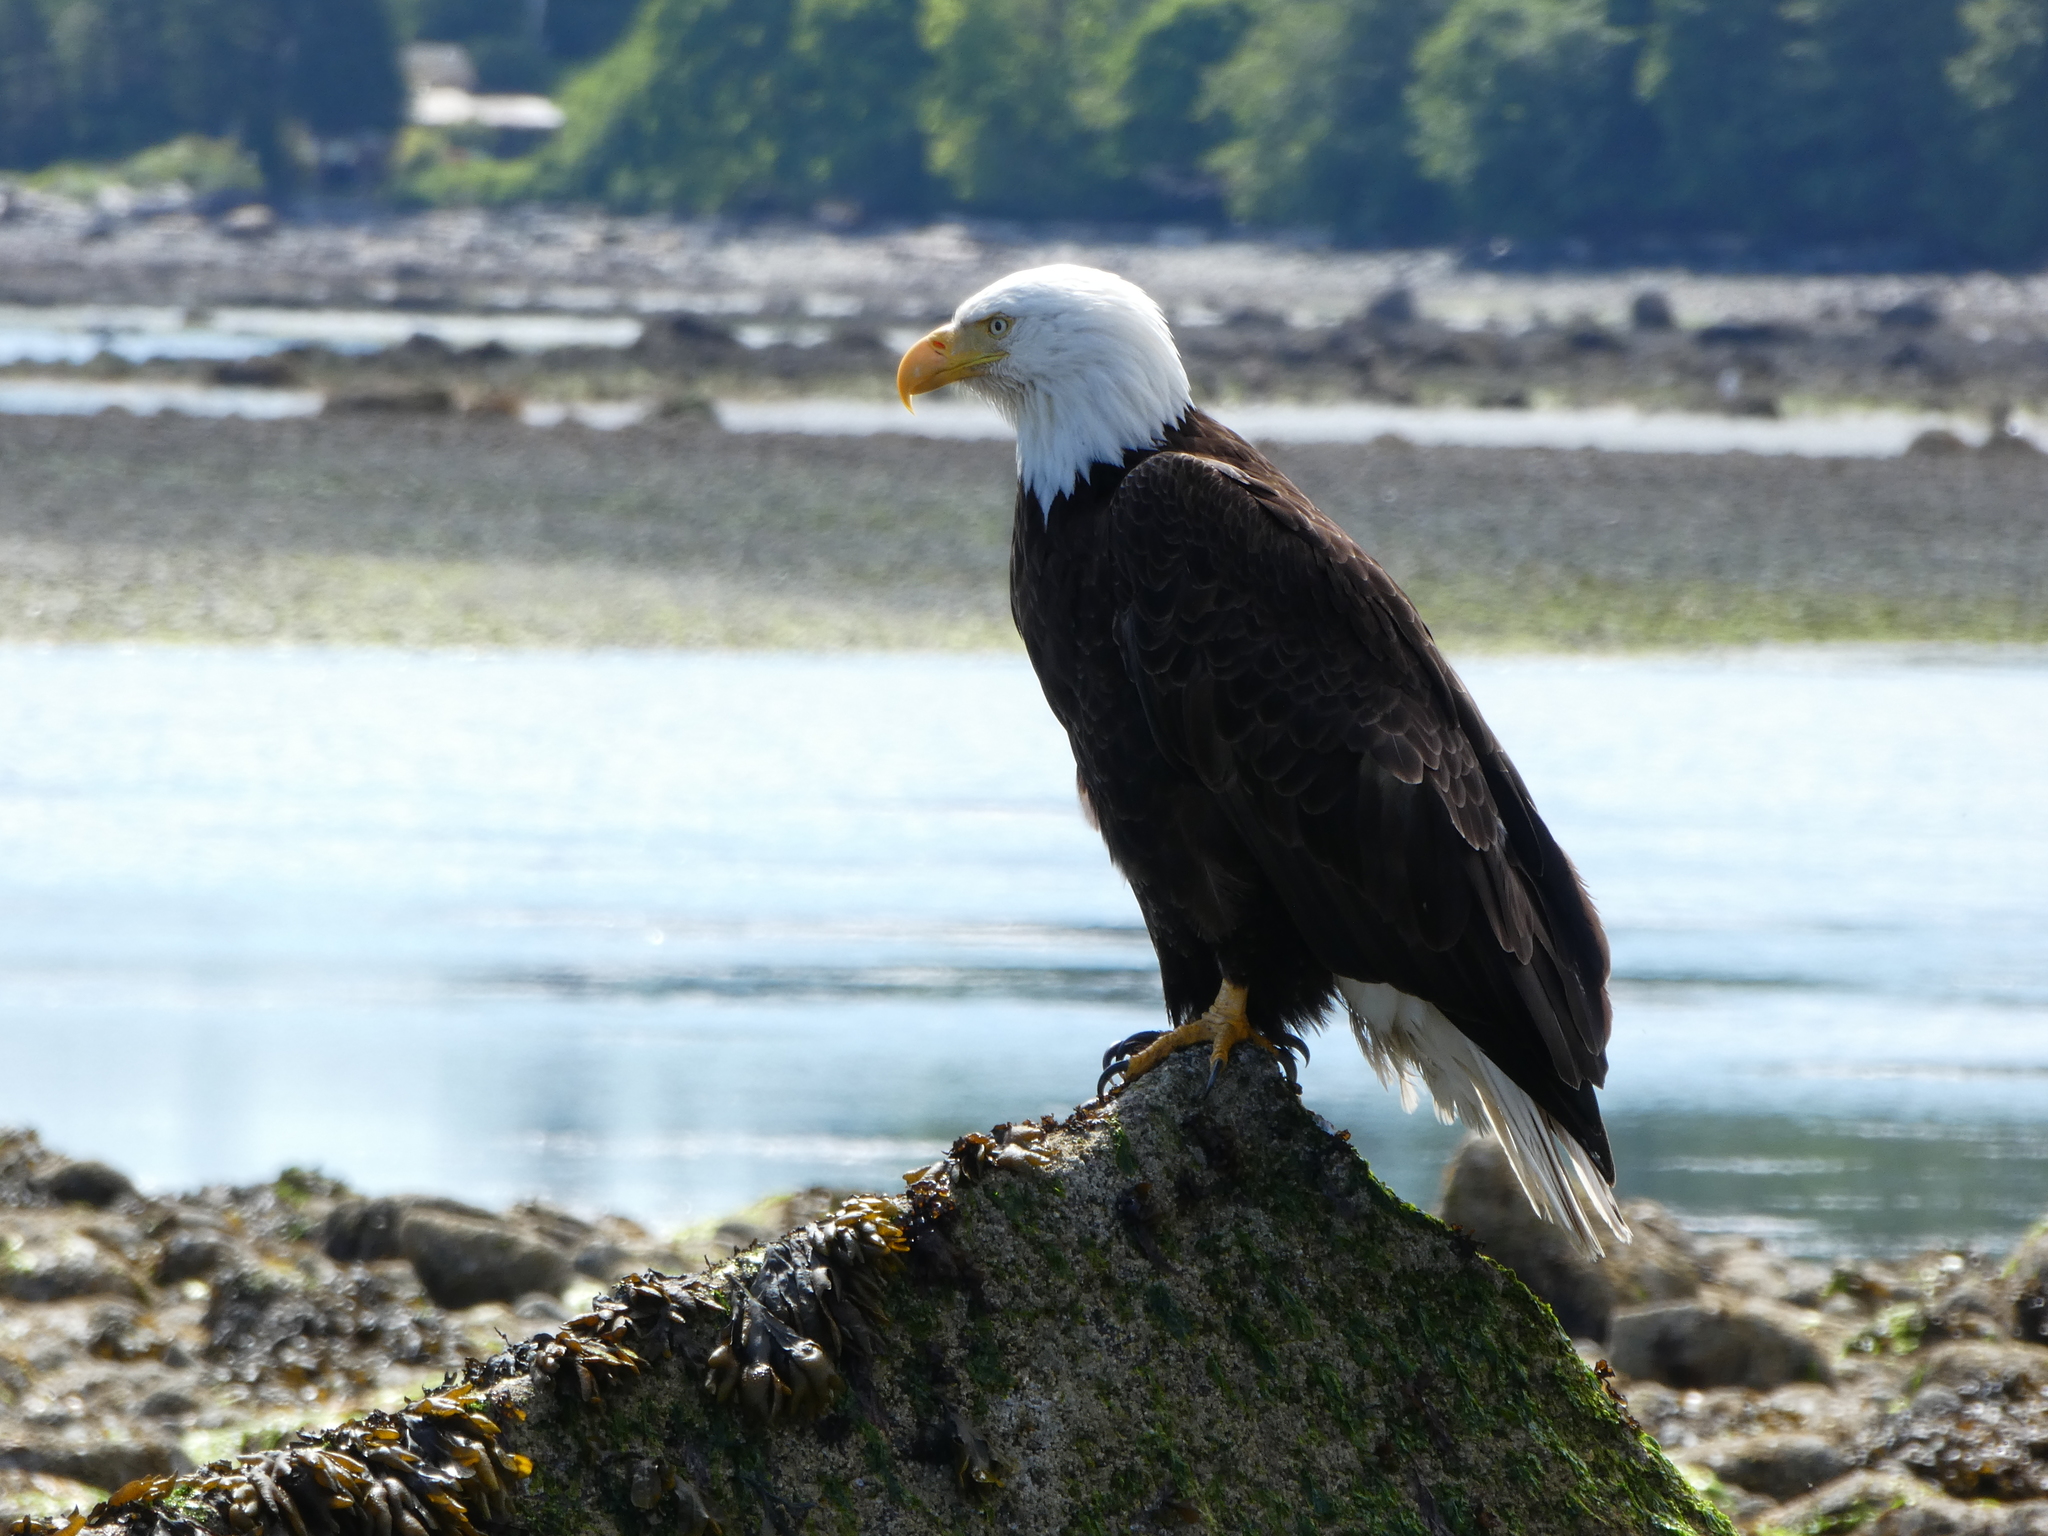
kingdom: Animalia
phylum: Chordata
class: Aves
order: Accipitriformes
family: Accipitridae
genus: Haliaeetus
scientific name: Haliaeetus leucocephalus
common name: Bald eagle
